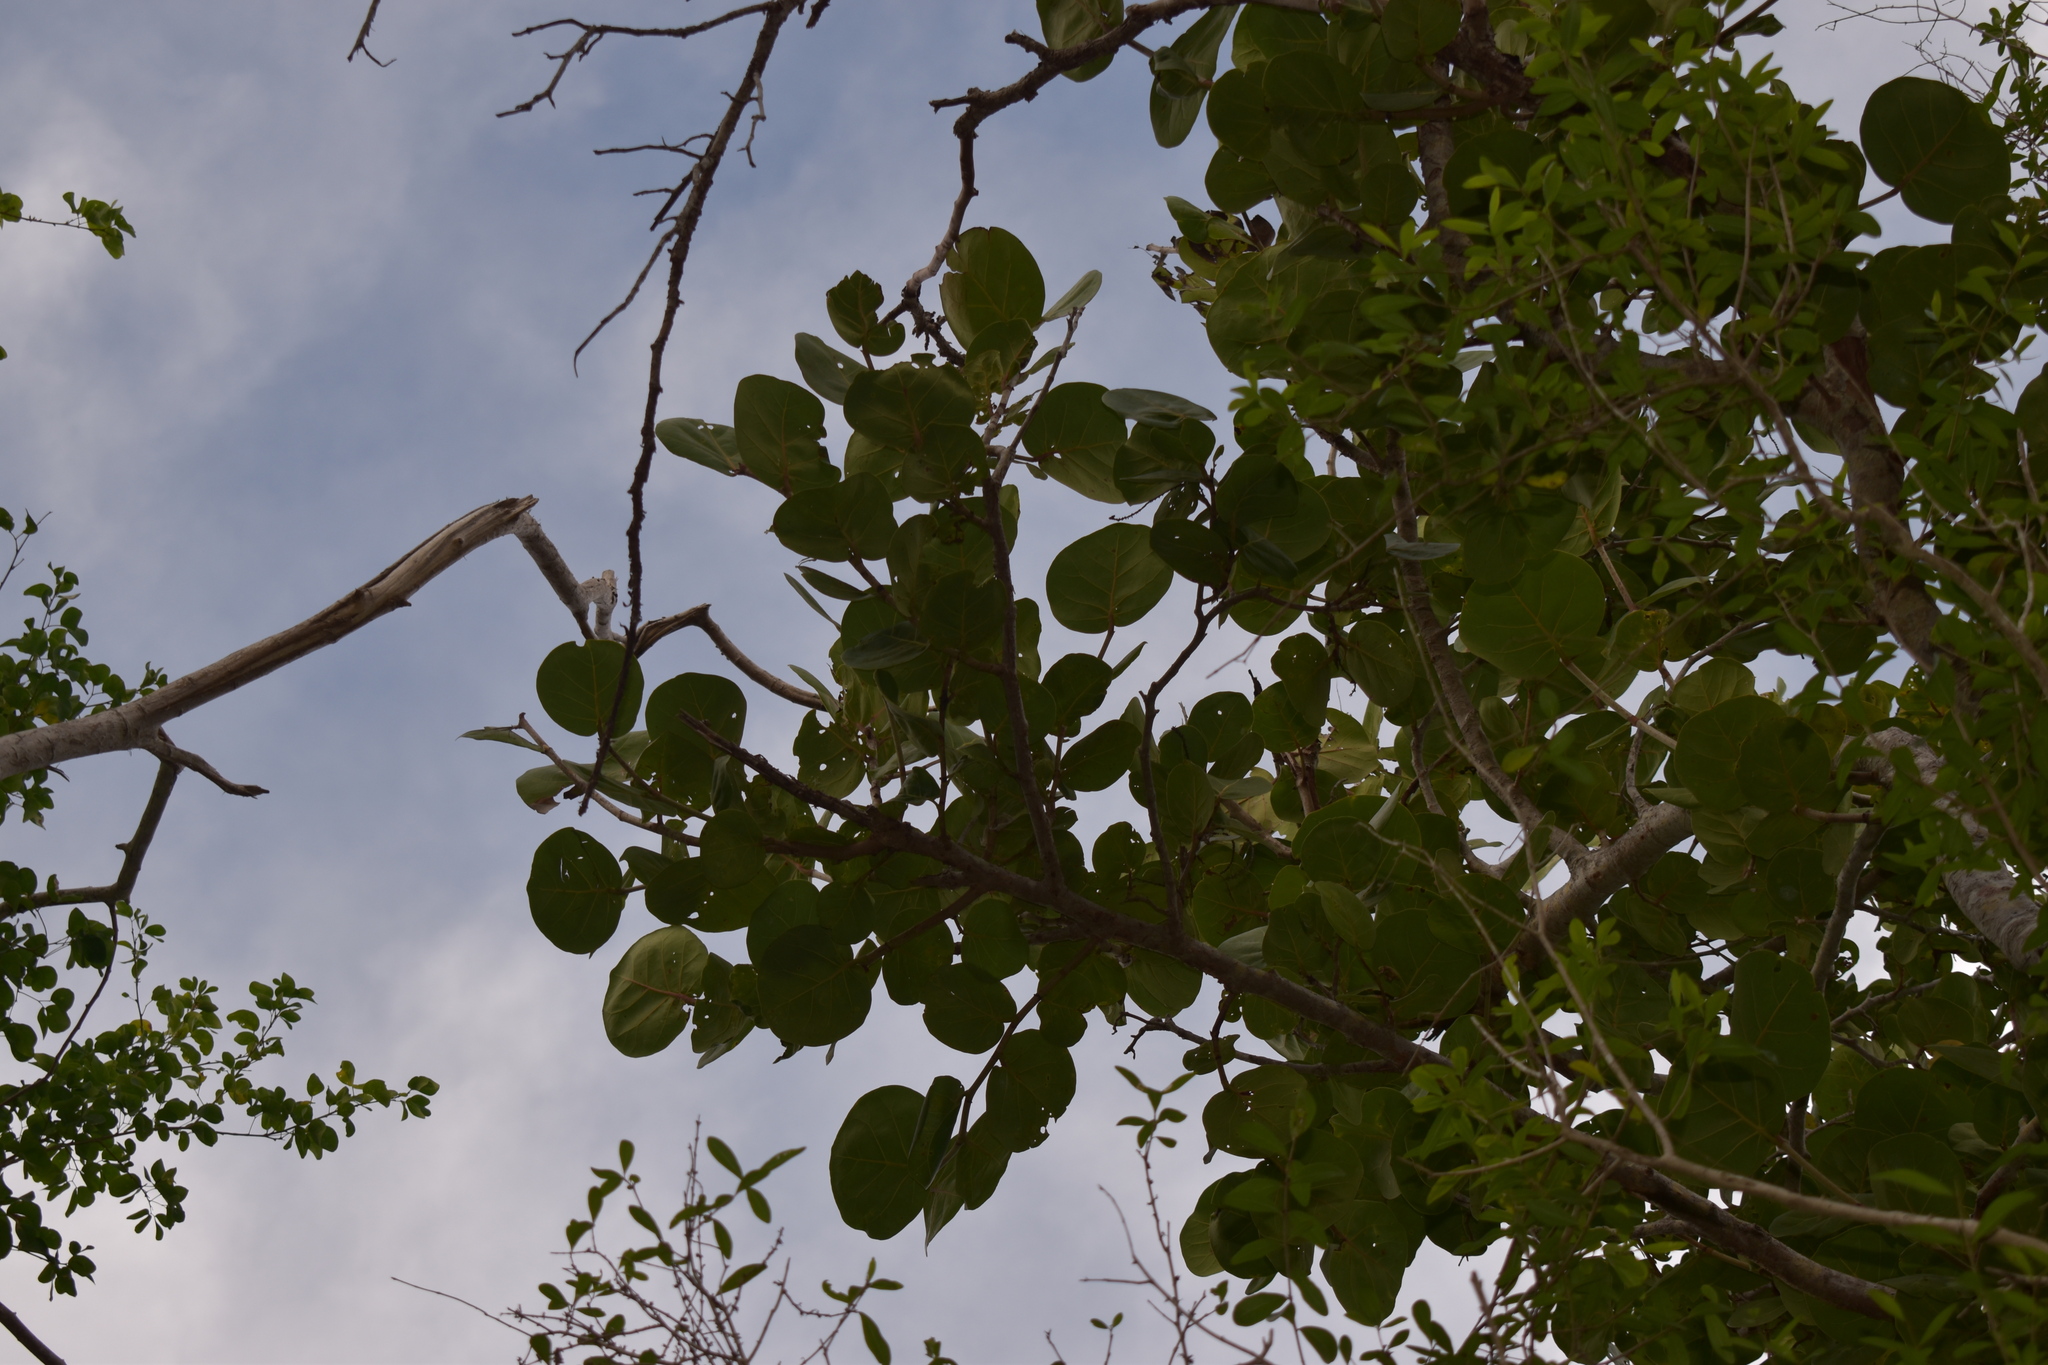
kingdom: Plantae
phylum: Tracheophyta
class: Magnoliopsida
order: Caryophyllales
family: Polygonaceae
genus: Coccoloba
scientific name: Coccoloba uvifera
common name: Seagrape
